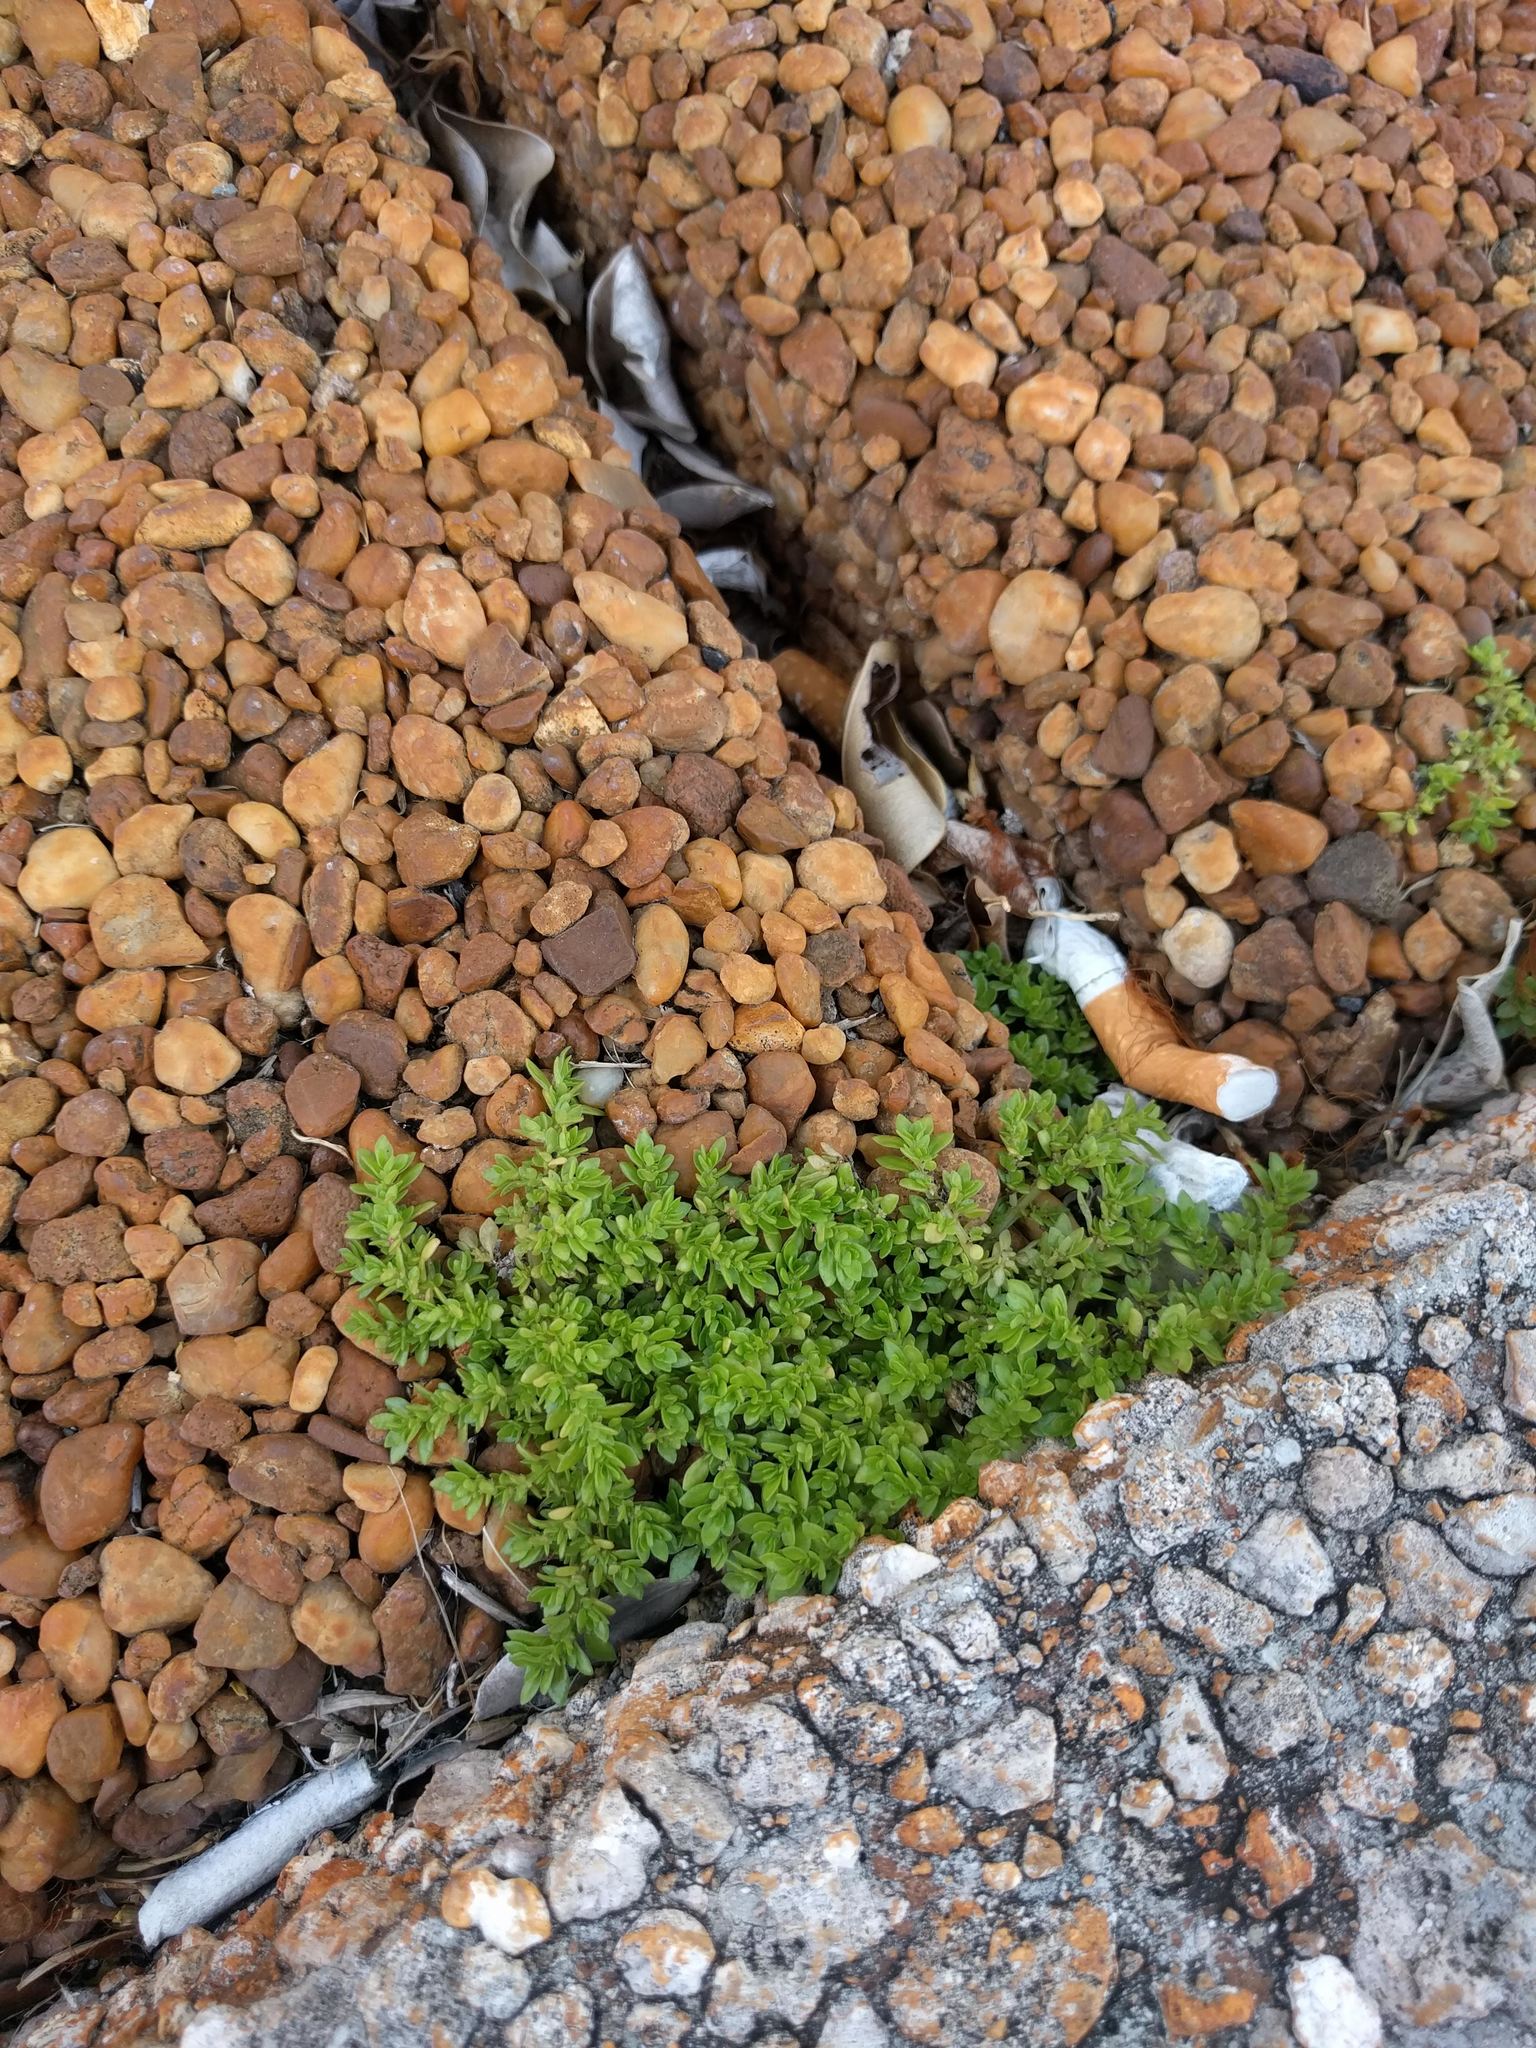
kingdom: Plantae
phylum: Tracheophyta
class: Magnoliopsida
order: Rosales
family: Urticaceae
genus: Pilea
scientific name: Pilea microphylla
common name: Artillery-plant
